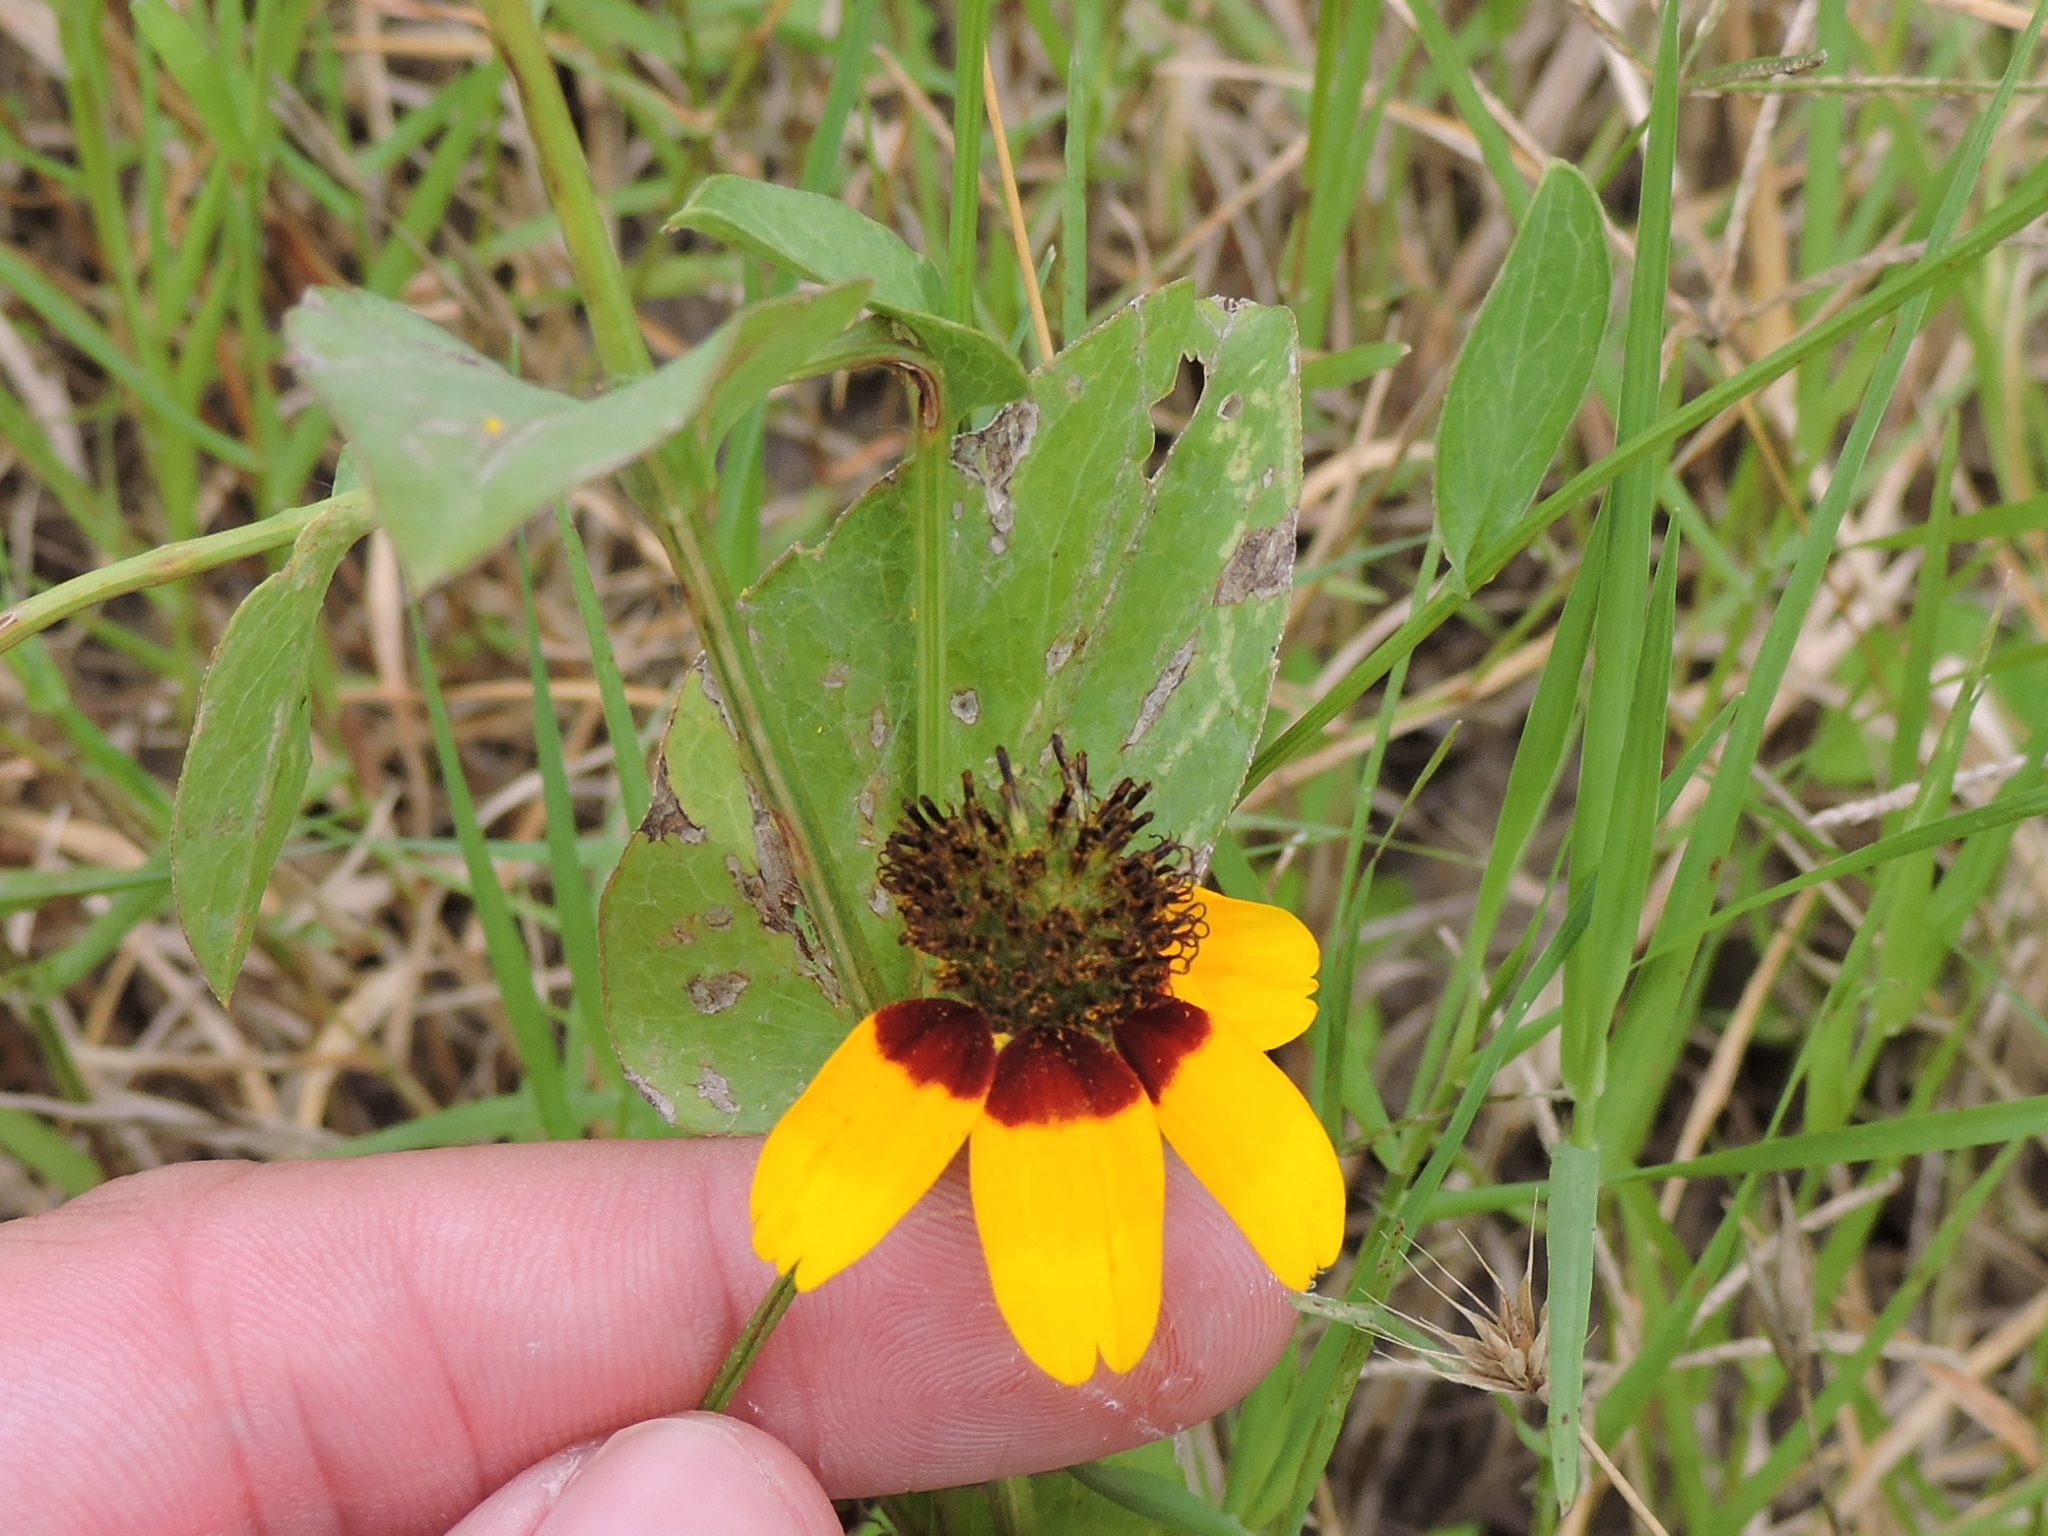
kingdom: Plantae
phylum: Tracheophyta
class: Magnoliopsida
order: Asterales
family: Asteraceae
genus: Rudbeckia
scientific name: Rudbeckia amplexicaulis
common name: Clasping-leaf coneflower
